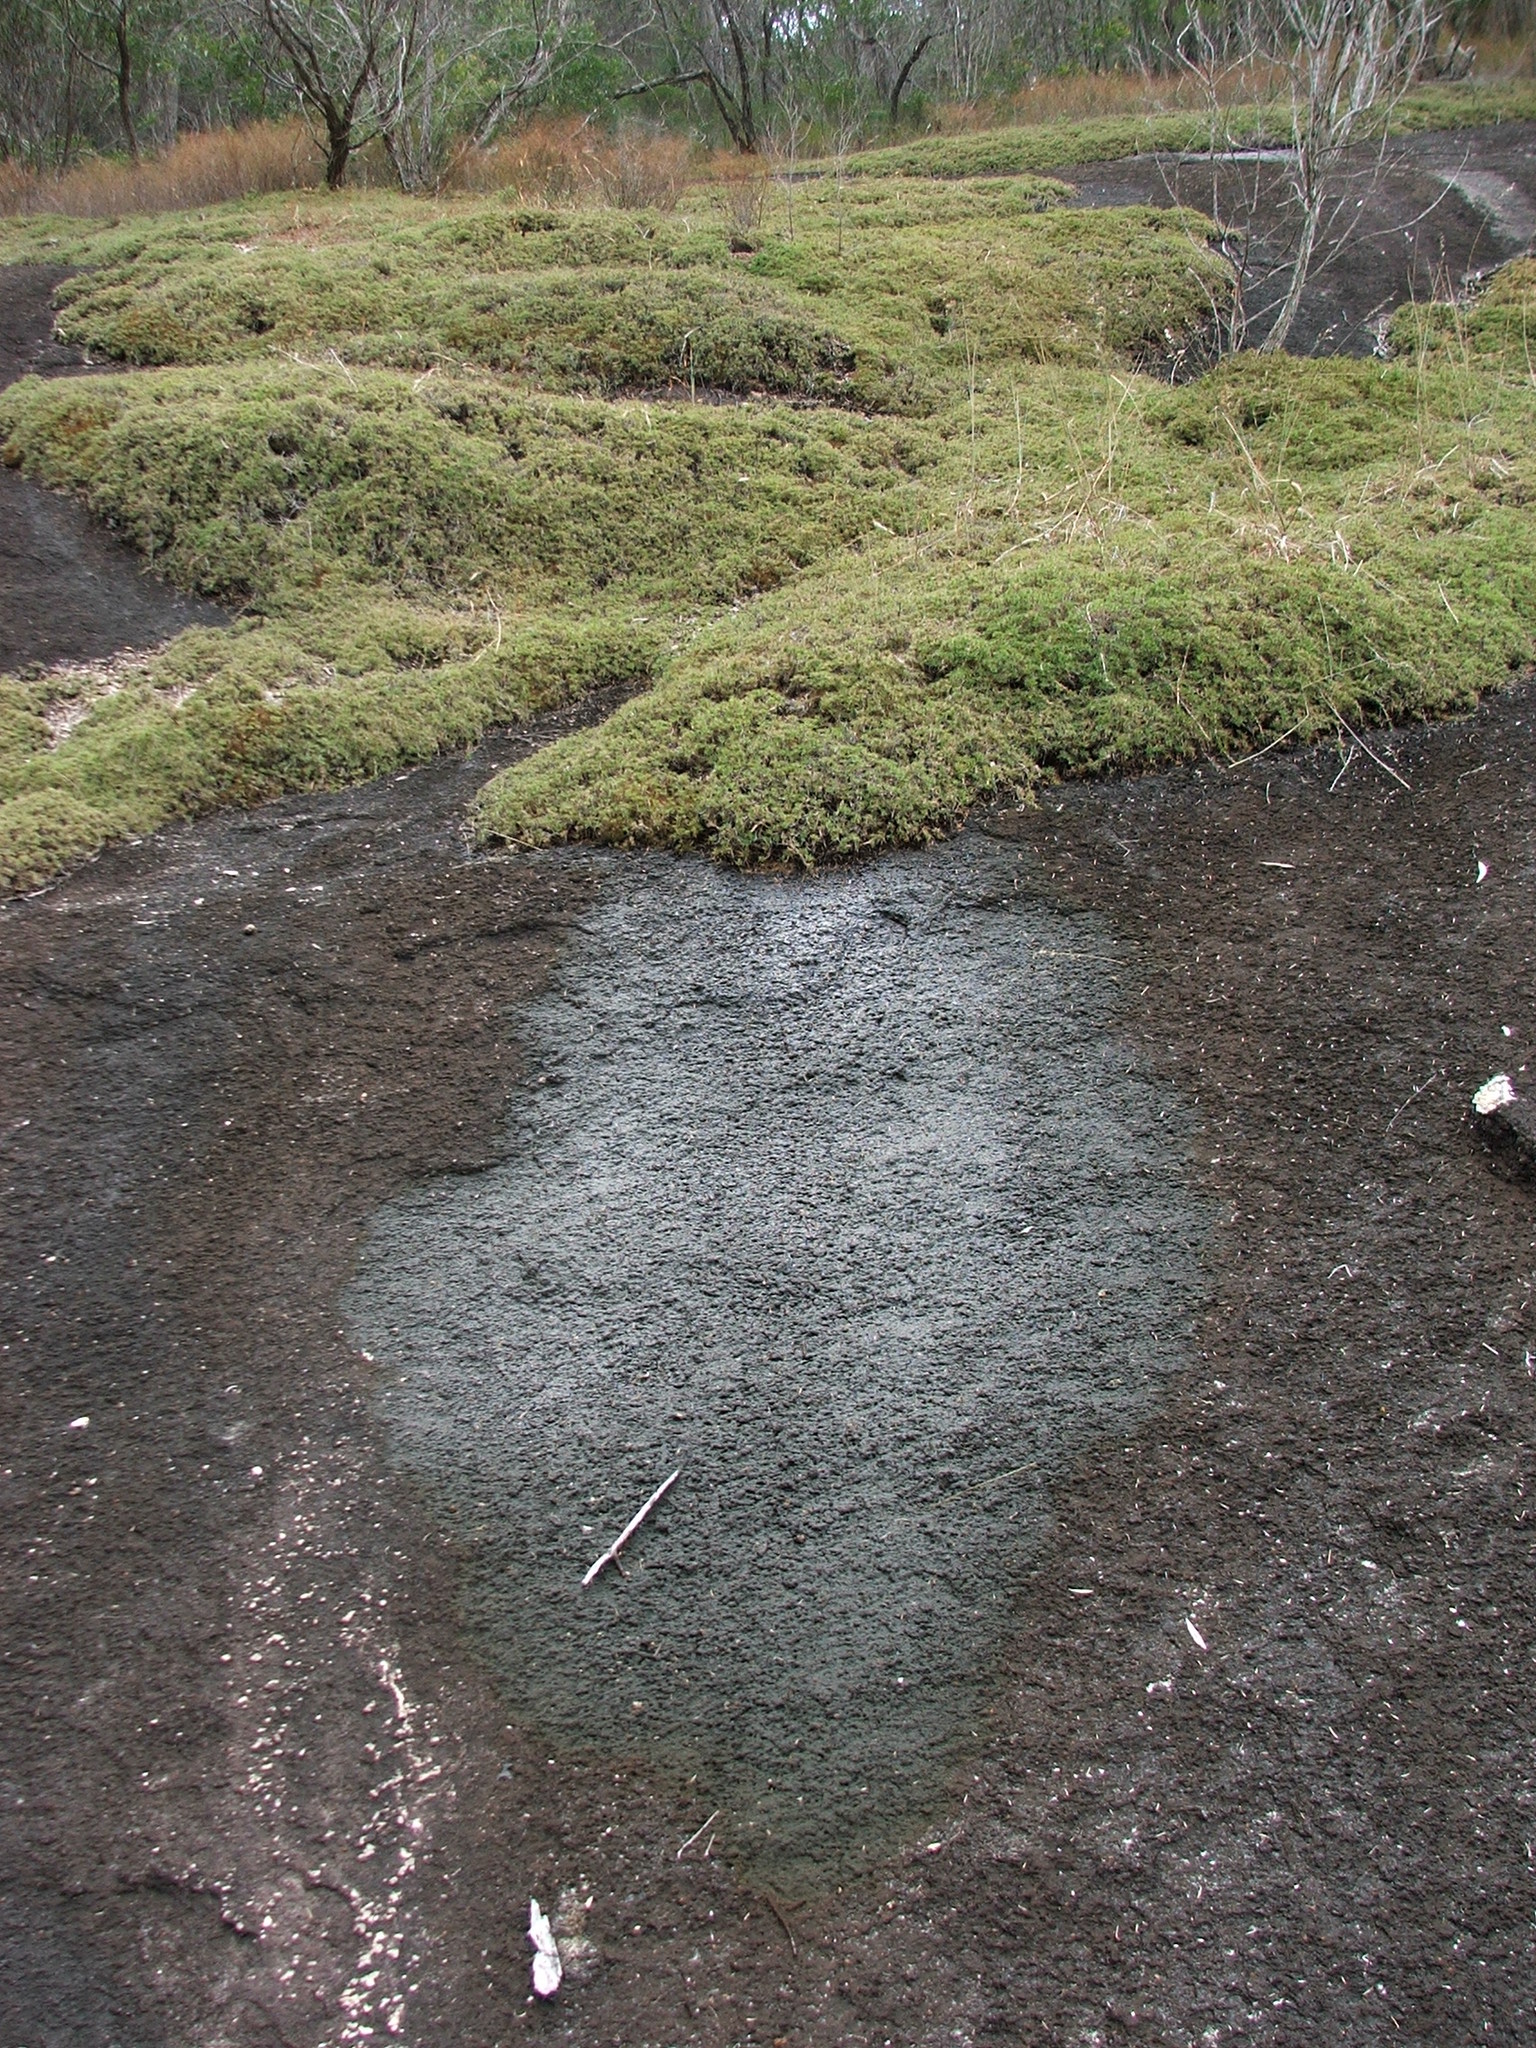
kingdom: Plantae
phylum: Tracheophyta
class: Liliopsida
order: Poales
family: Poaceae
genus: Micraira
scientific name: Micraira subulifolia
